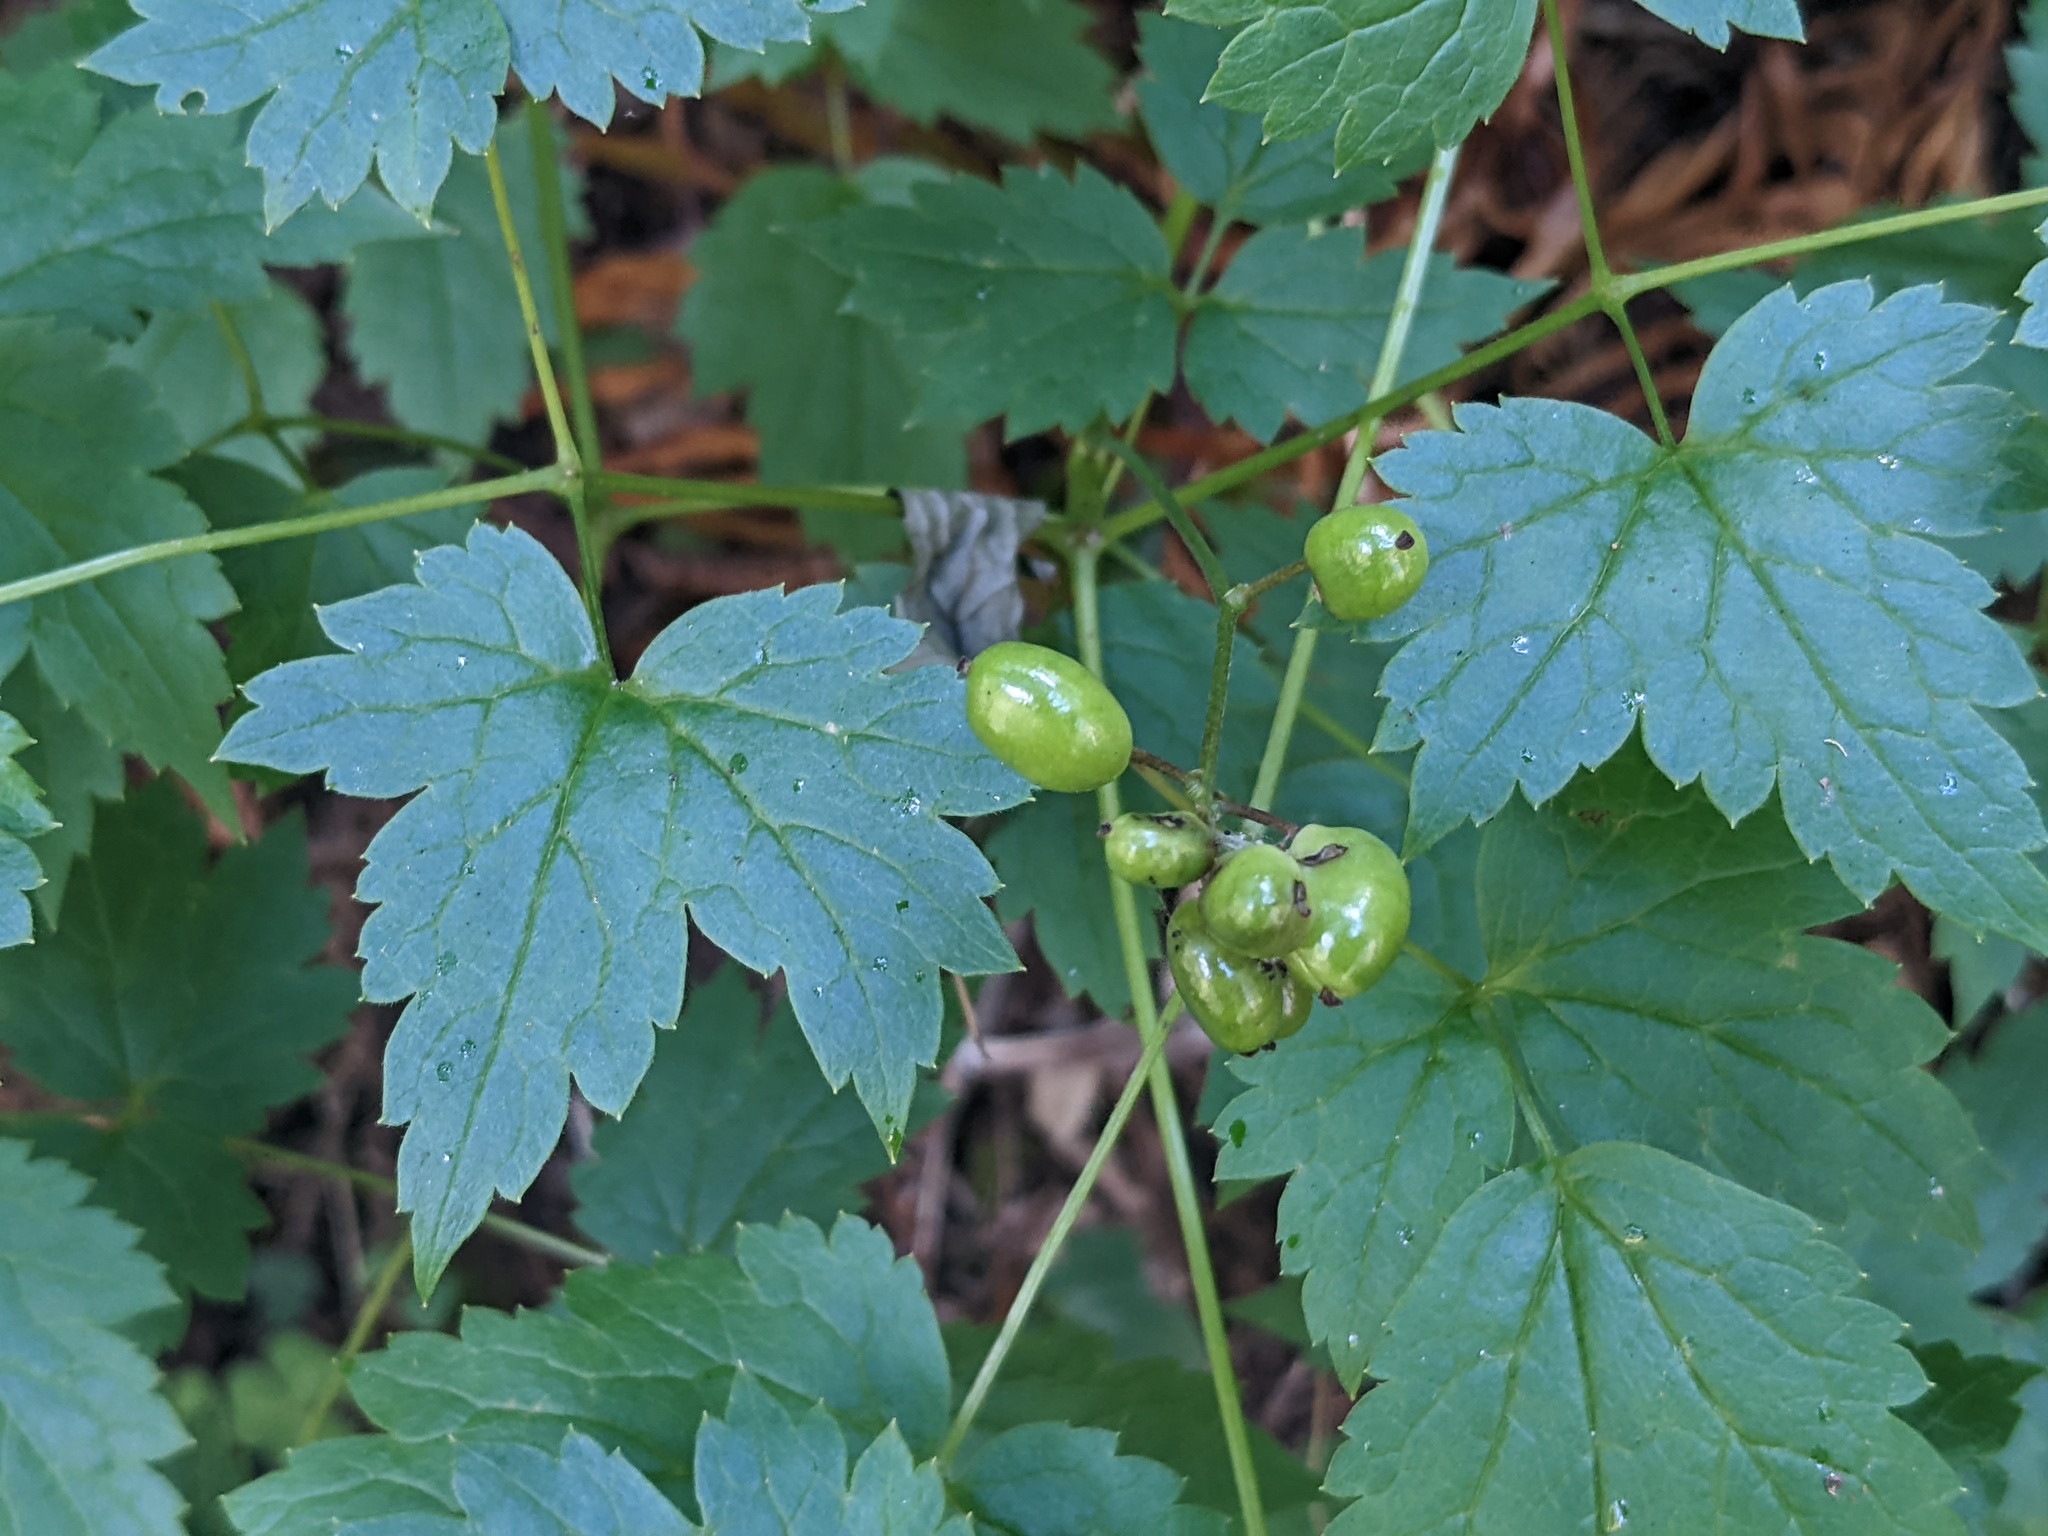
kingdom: Plantae
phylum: Tracheophyta
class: Magnoliopsida
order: Ranunculales
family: Ranunculaceae
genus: Actaea
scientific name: Actaea rubra
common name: Red baneberry
